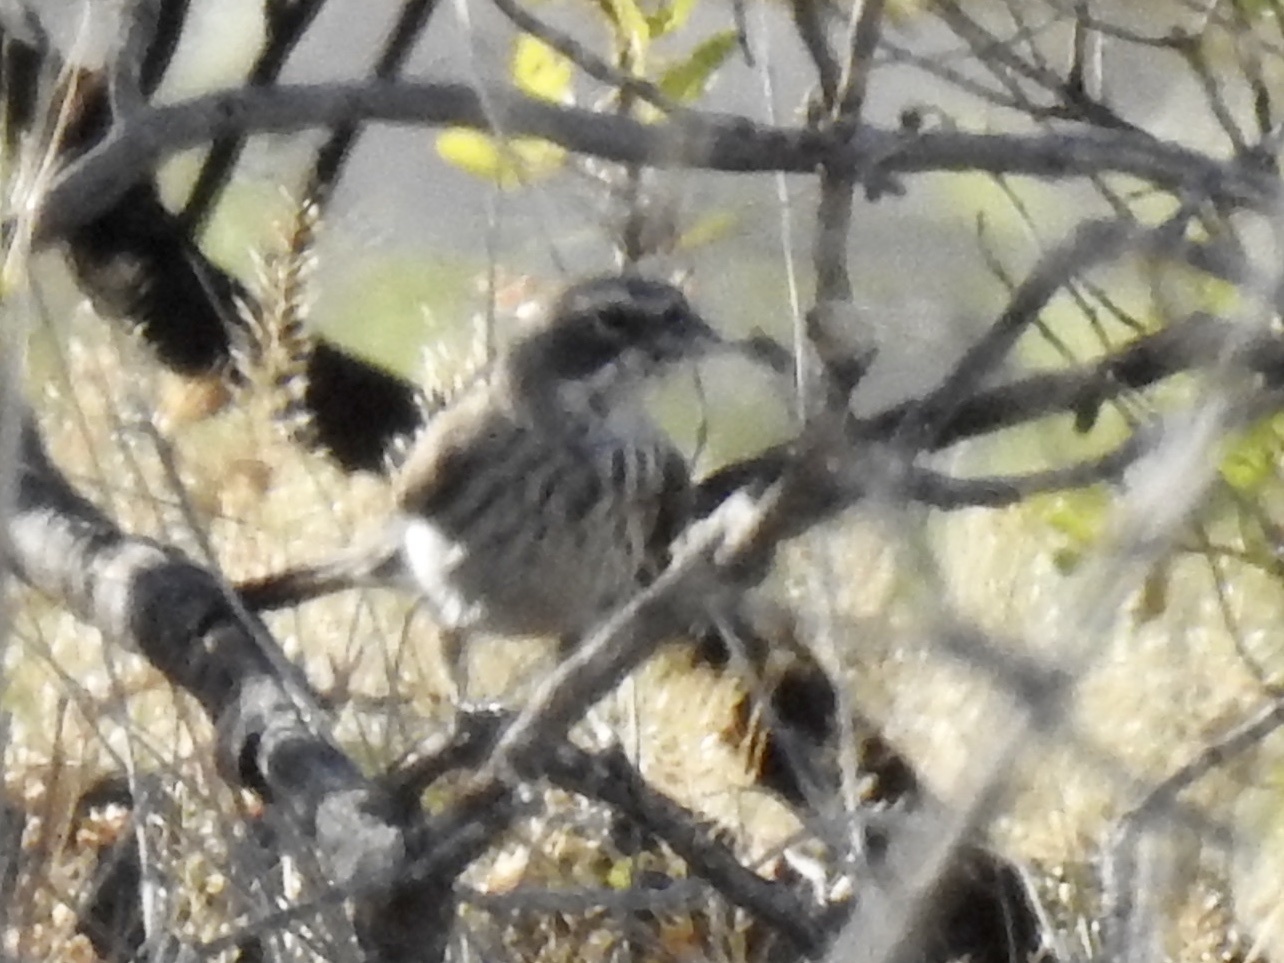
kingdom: Animalia
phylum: Chordata
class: Aves
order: Passeriformes
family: Passerellidae
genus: Amphispiza
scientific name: Amphispiza bilineata
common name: Black-throated sparrow
